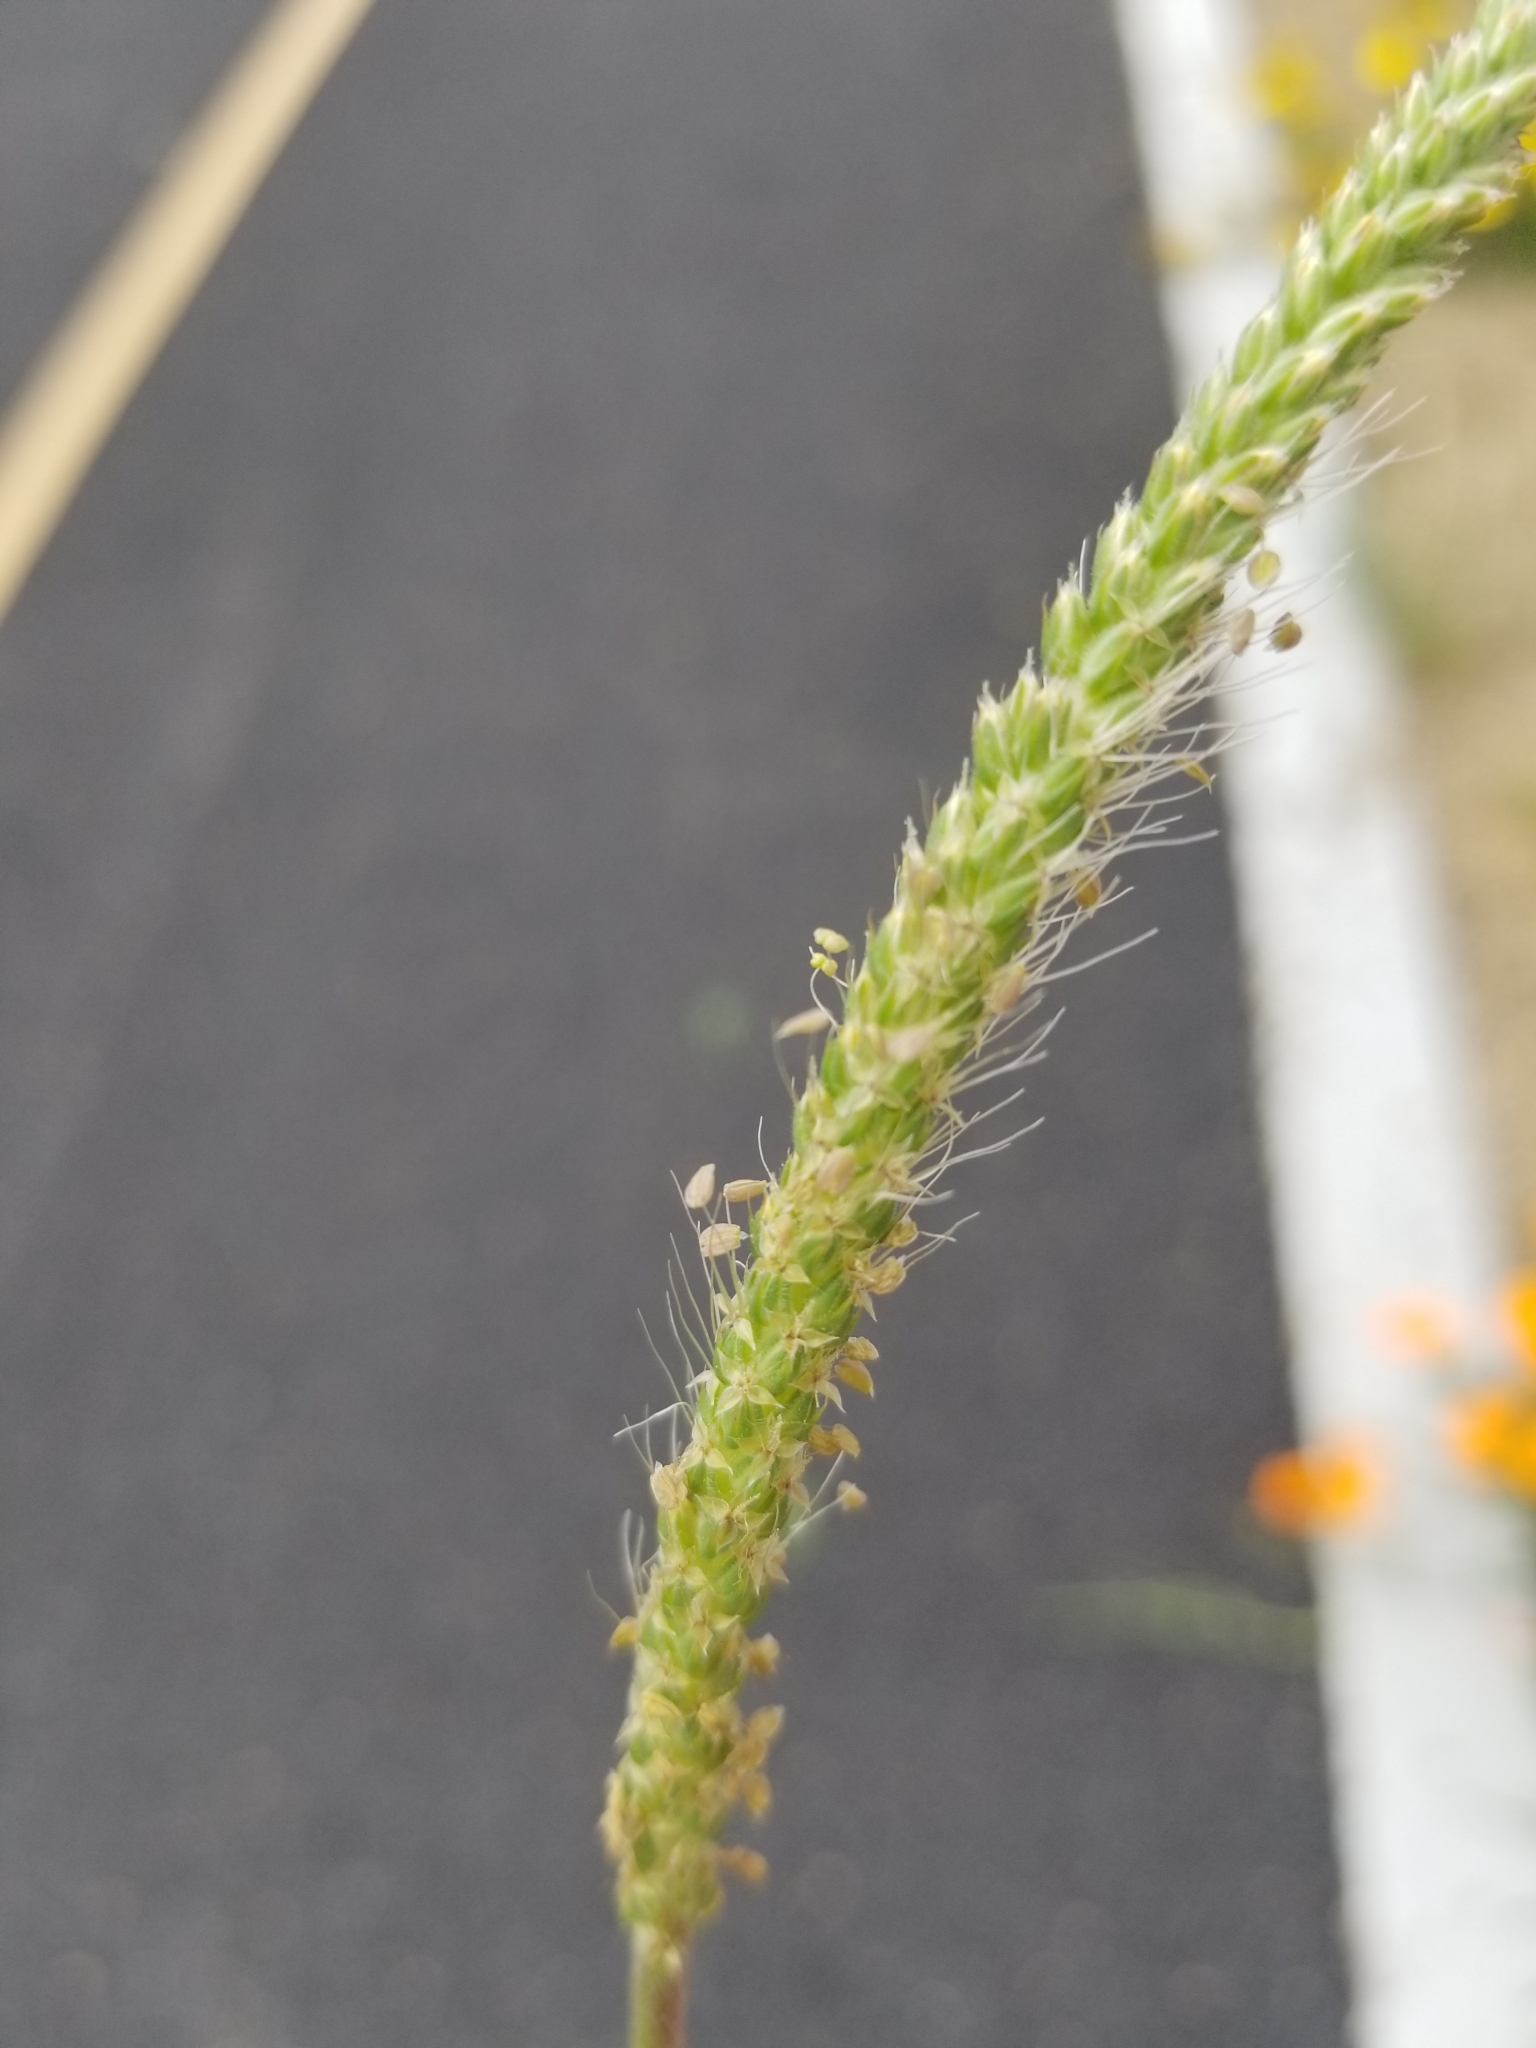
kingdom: Plantae
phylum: Tracheophyta
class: Magnoliopsida
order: Lamiales
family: Plantaginaceae
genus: Plantago
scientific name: Plantago coronopus
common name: Buck's-horn plantain
